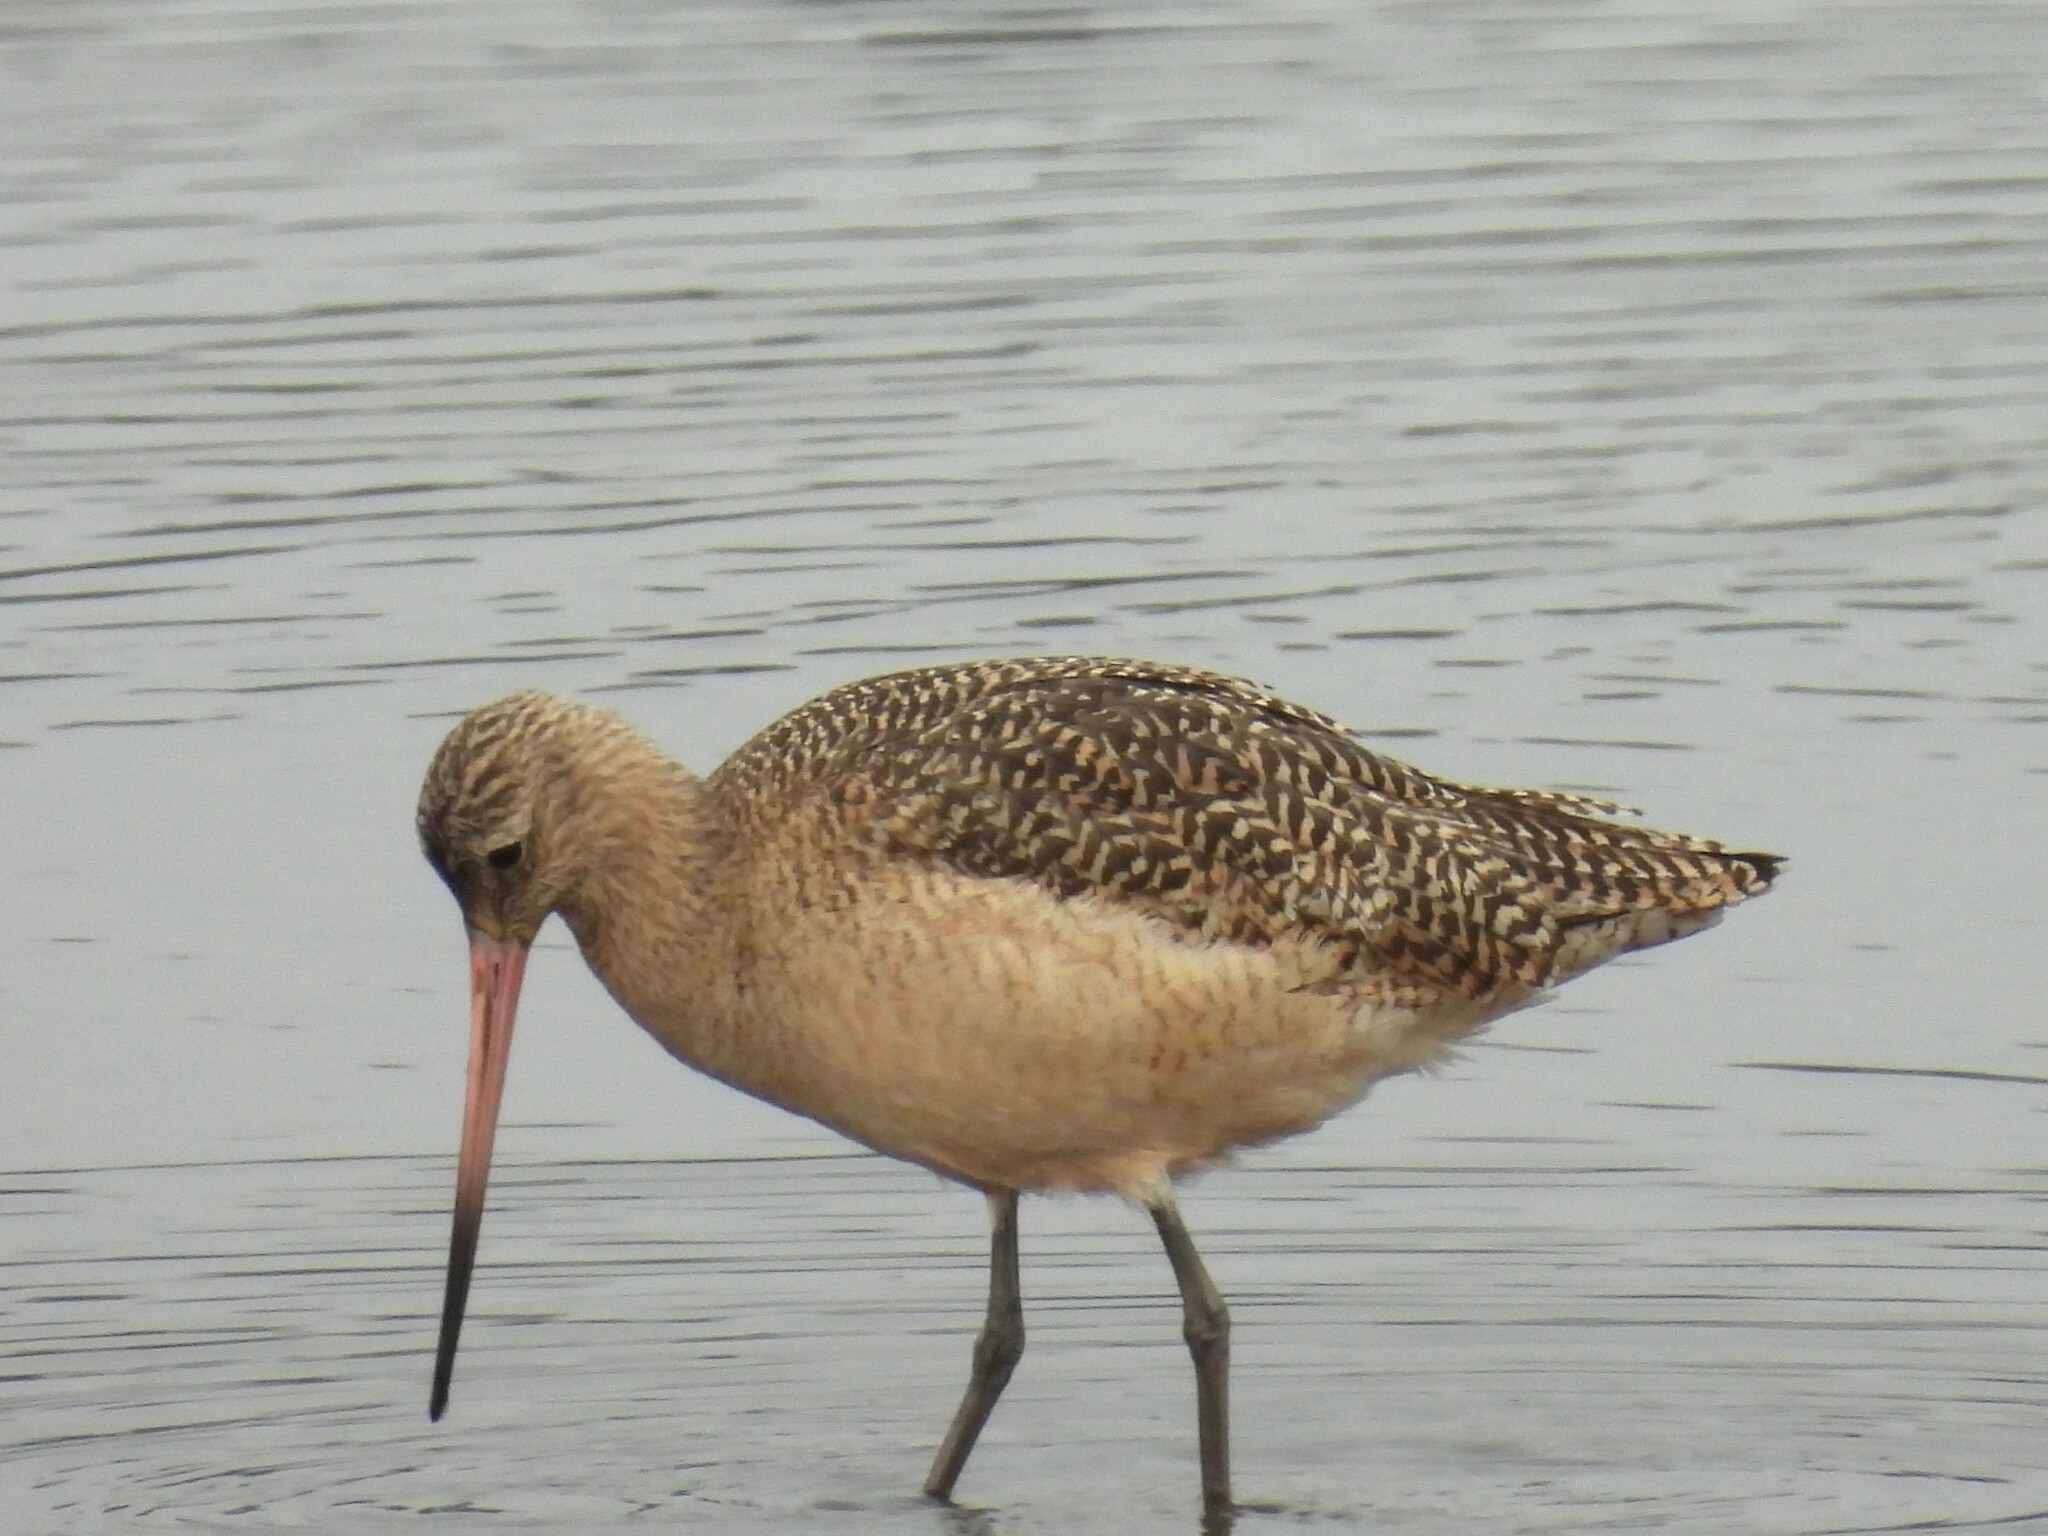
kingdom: Animalia
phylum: Chordata
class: Aves
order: Charadriiformes
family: Scolopacidae
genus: Limosa
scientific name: Limosa fedoa
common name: Marbled godwit
